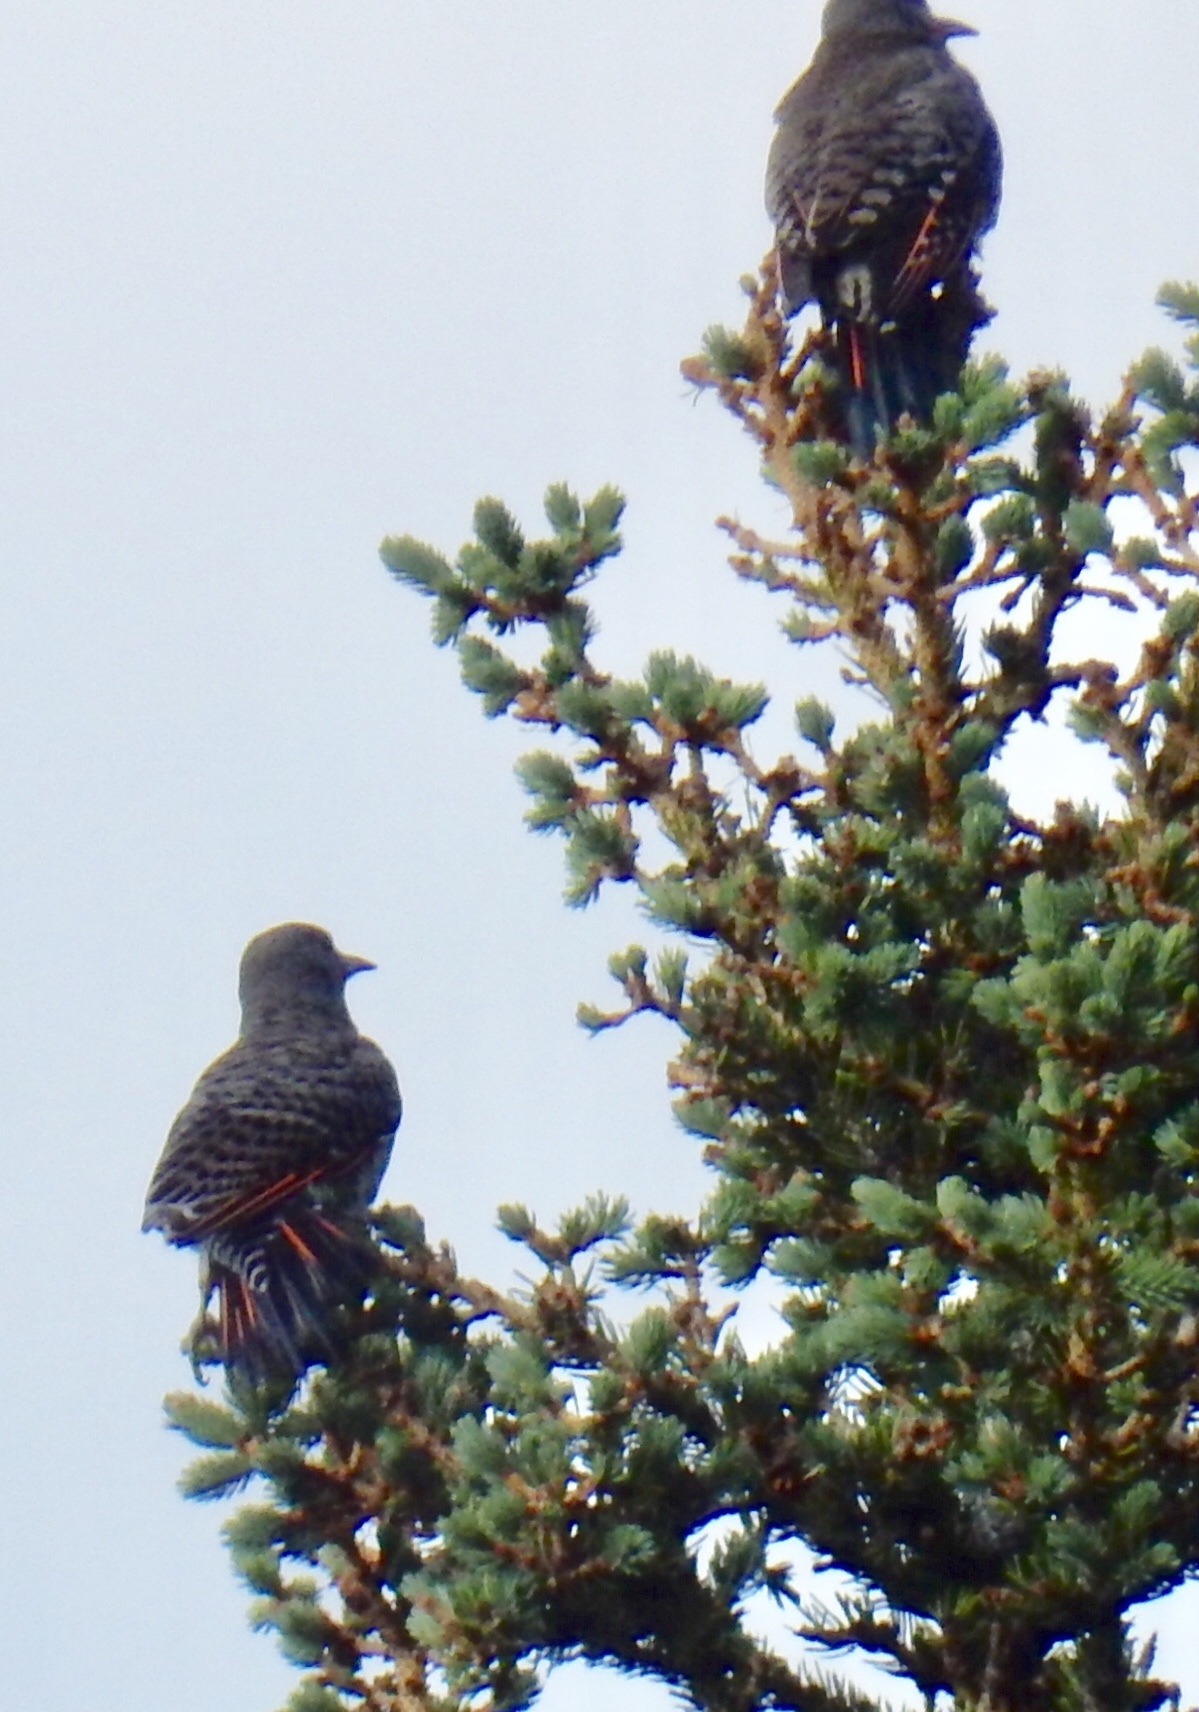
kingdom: Animalia
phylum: Chordata
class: Aves
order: Piciformes
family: Picidae
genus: Colaptes
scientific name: Colaptes auratus
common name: Northern flicker
